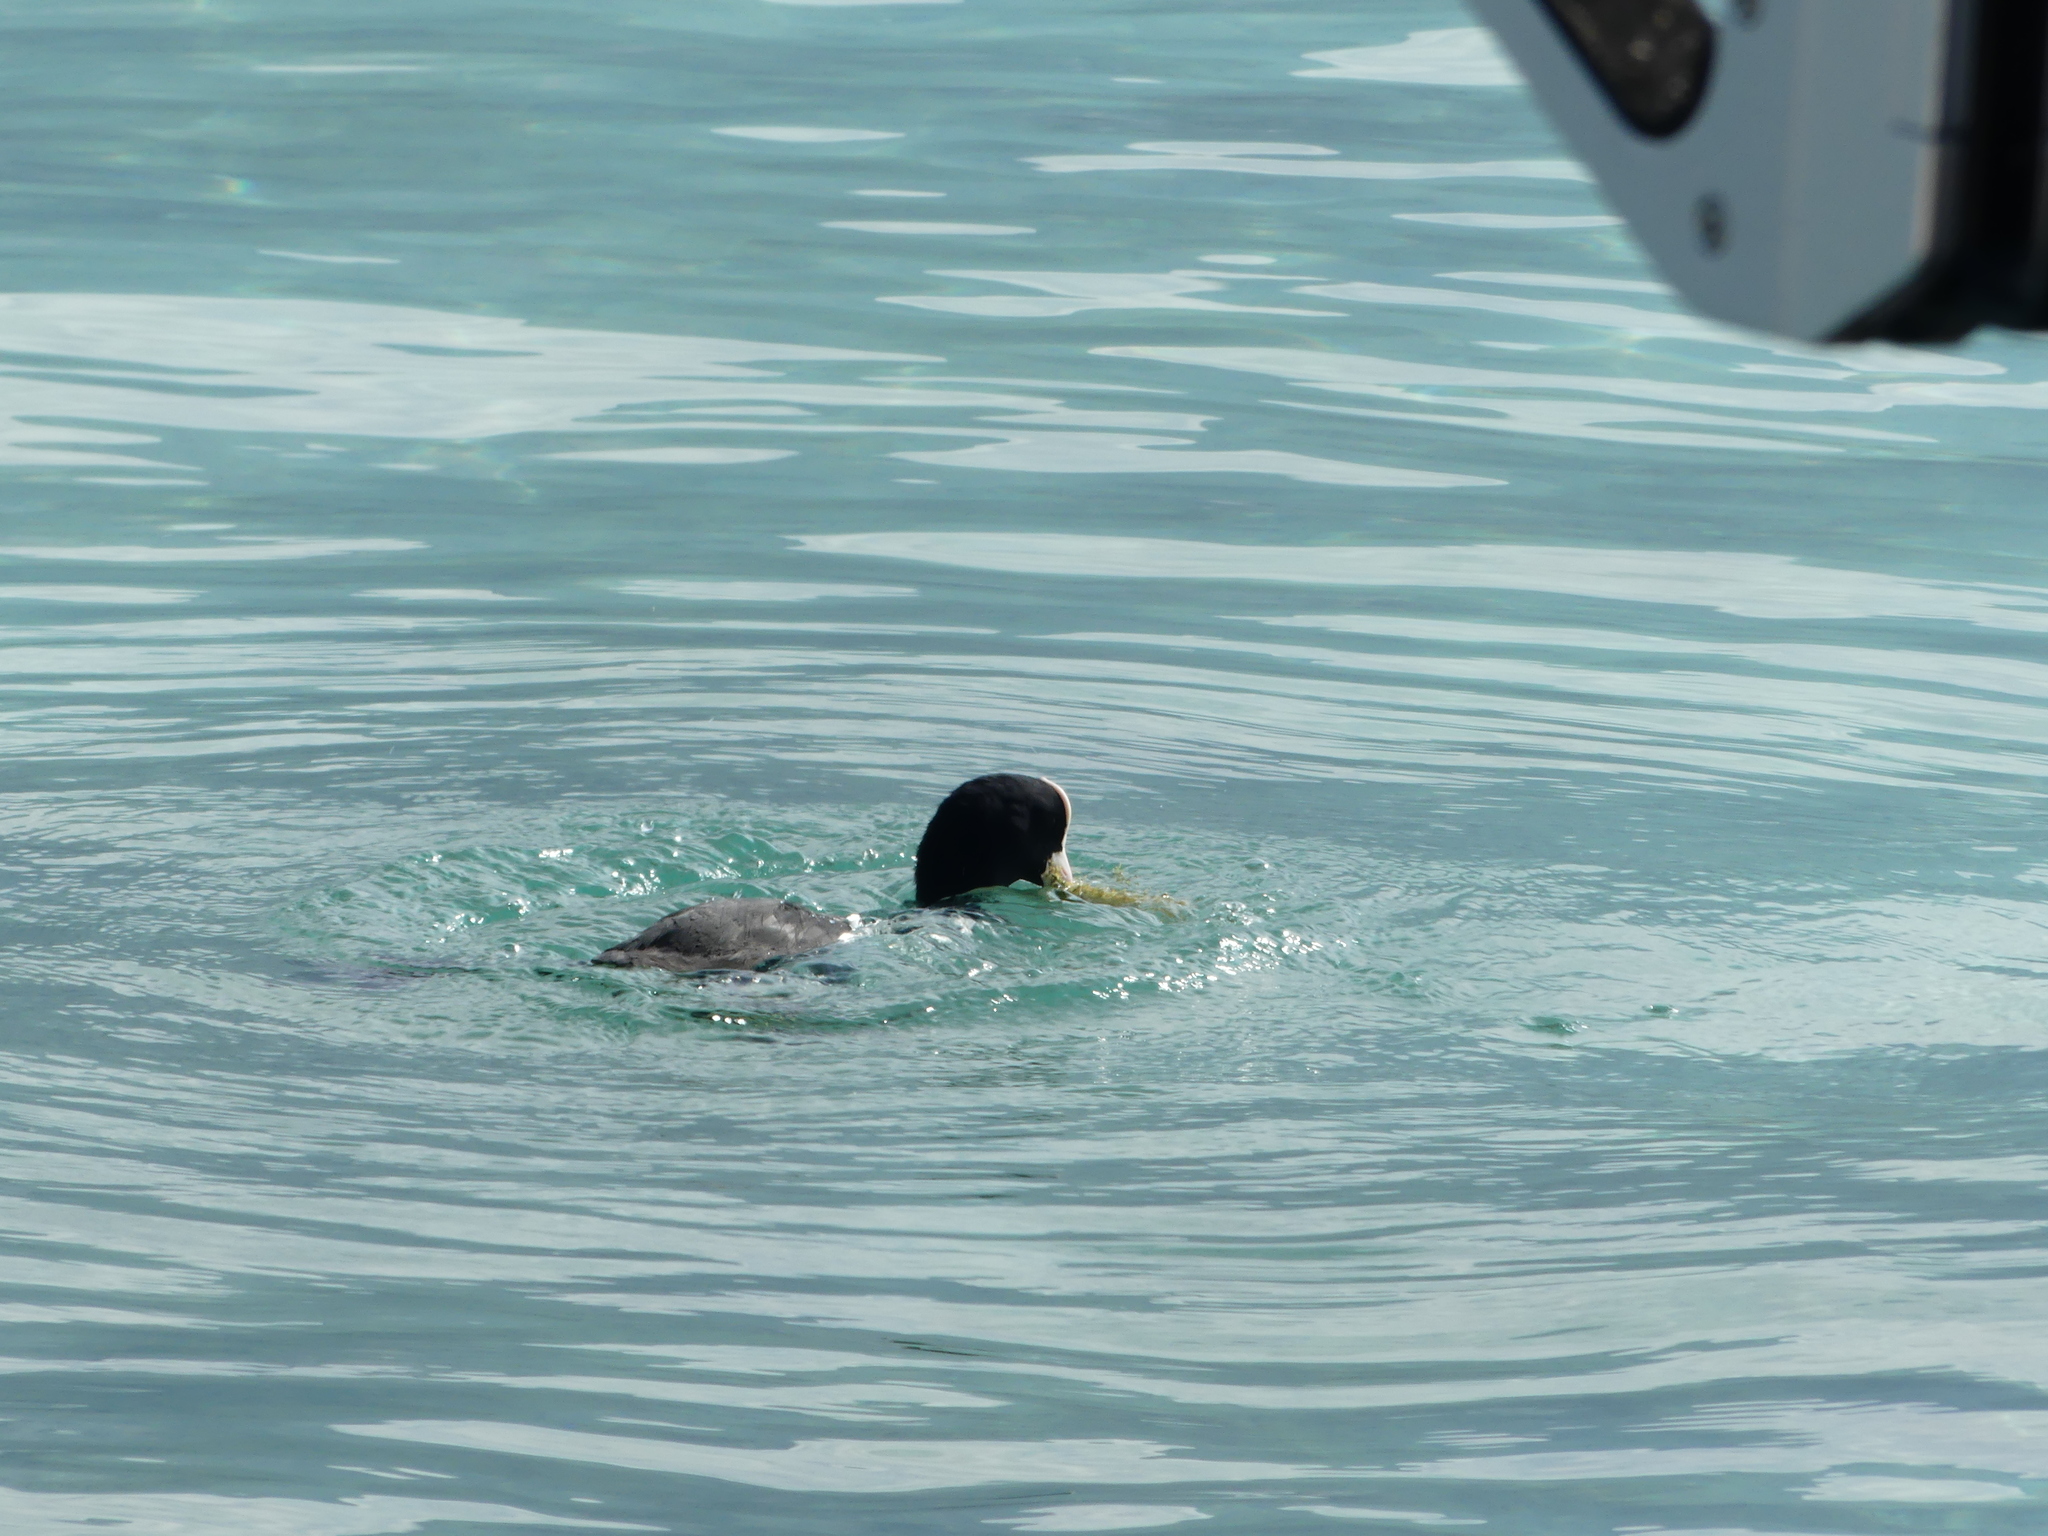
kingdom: Animalia
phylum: Chordata
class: Aves
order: Gruiformes
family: Rallidae
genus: Fulica
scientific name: Fulica atra
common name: Eurasian coot
